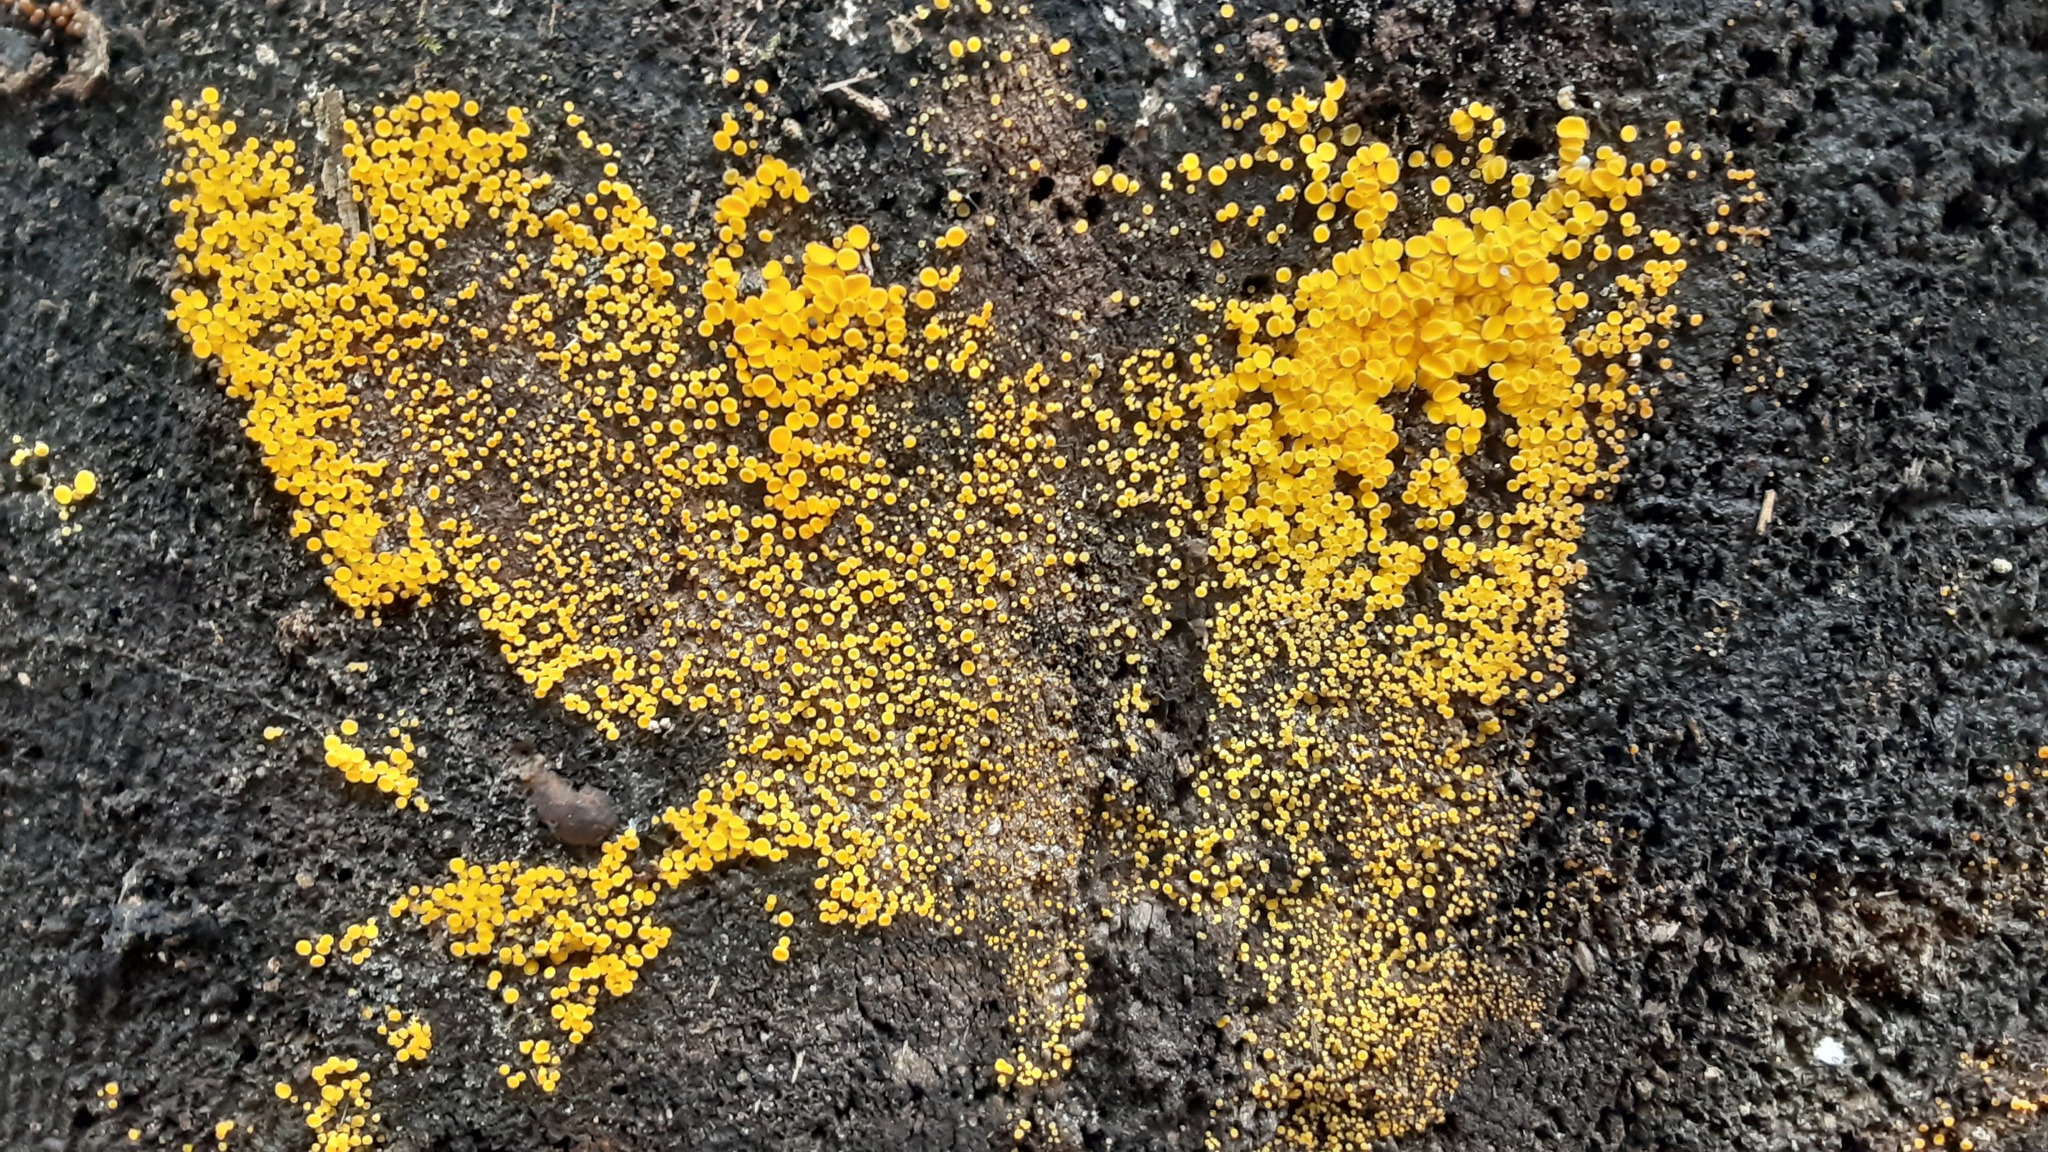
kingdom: Fungi
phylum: Ascomycota
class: Leotiomycetes
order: Helotiales
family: Pezizellaceae
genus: Calycina
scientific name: Calycina citrina
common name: Yellow fairy cups
